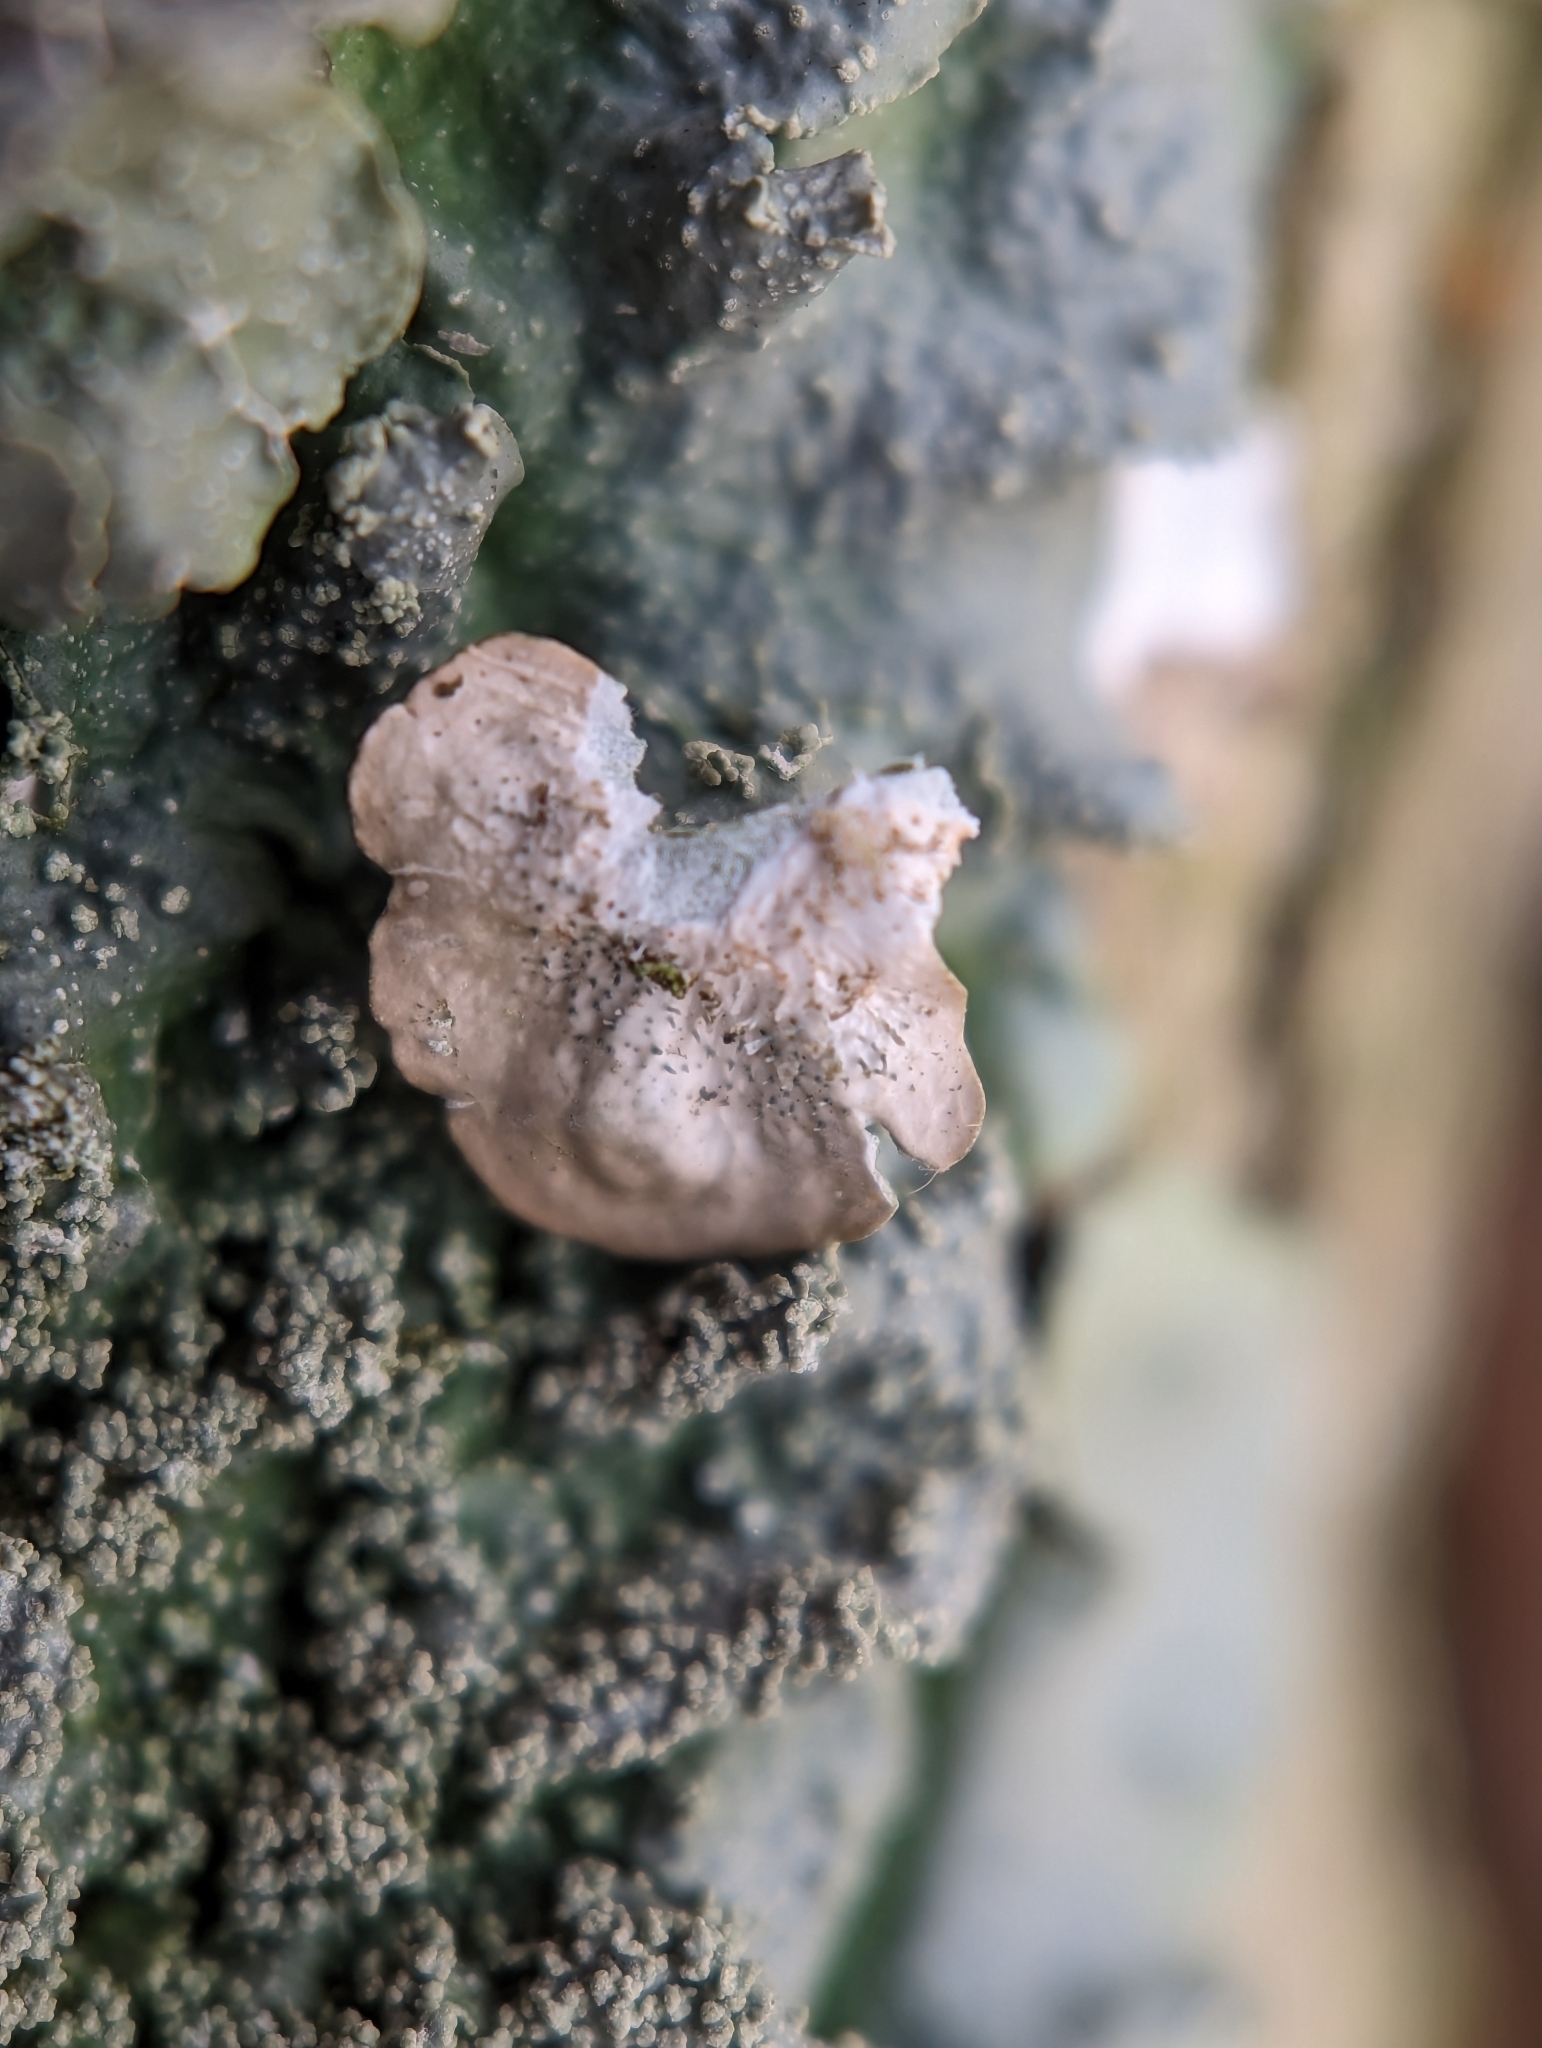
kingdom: Fungi
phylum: Ascomycota
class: Lecanoromycetes
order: Lecanorales
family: Parmeliaceae
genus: Punctelia
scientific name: Punctelia missouriensis
